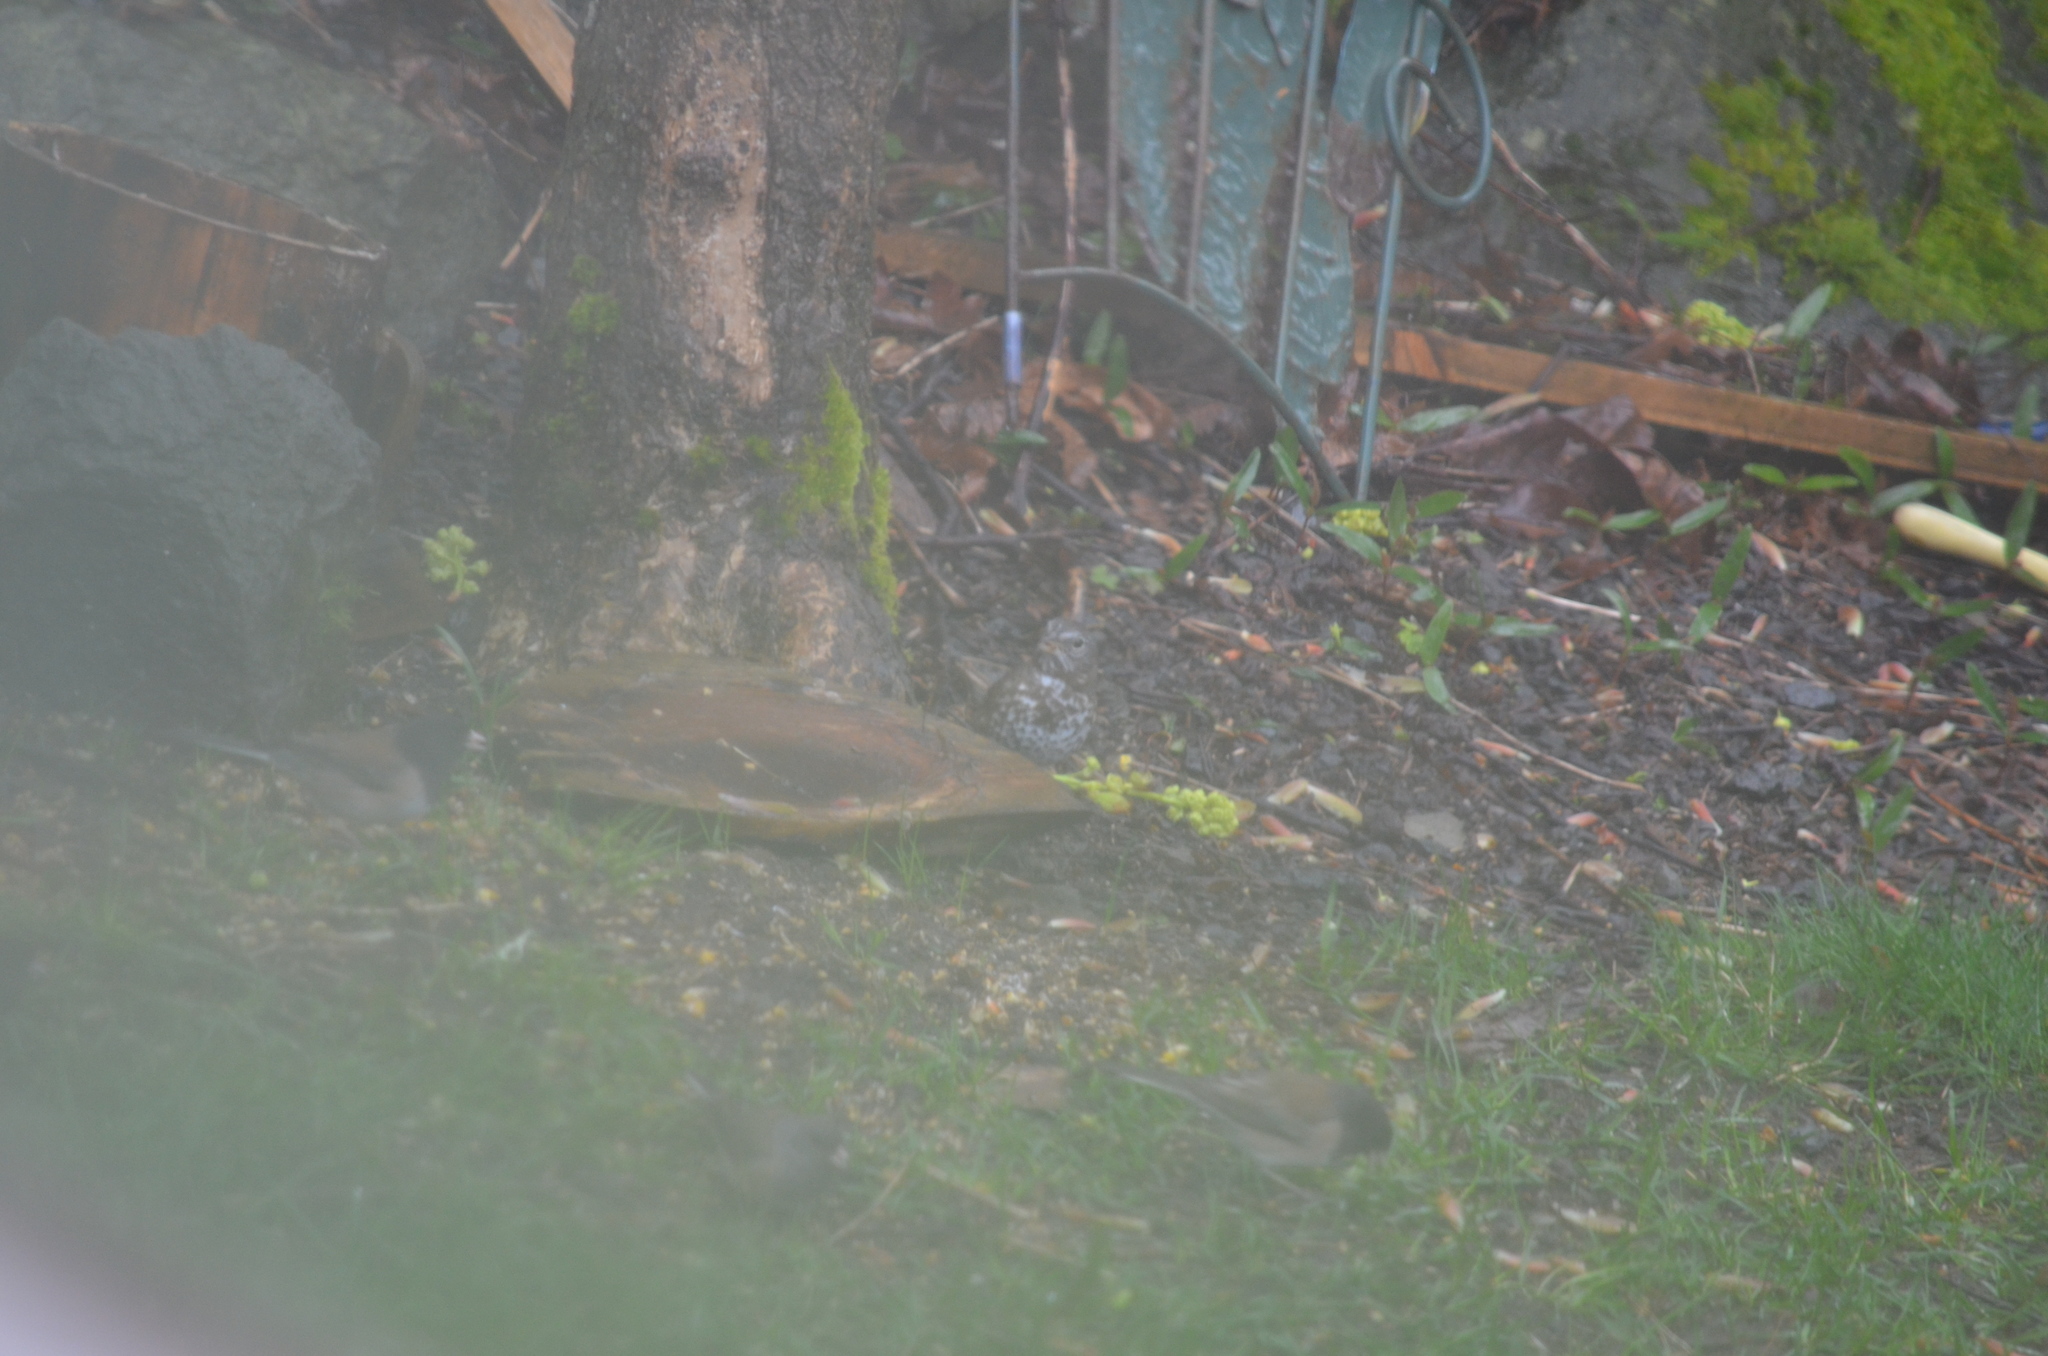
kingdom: Animalia
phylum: Chordata
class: Aves
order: Passeriformes
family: Passerellidae
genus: Passerella
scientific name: Passerella iliaca
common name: Fox sparrow
